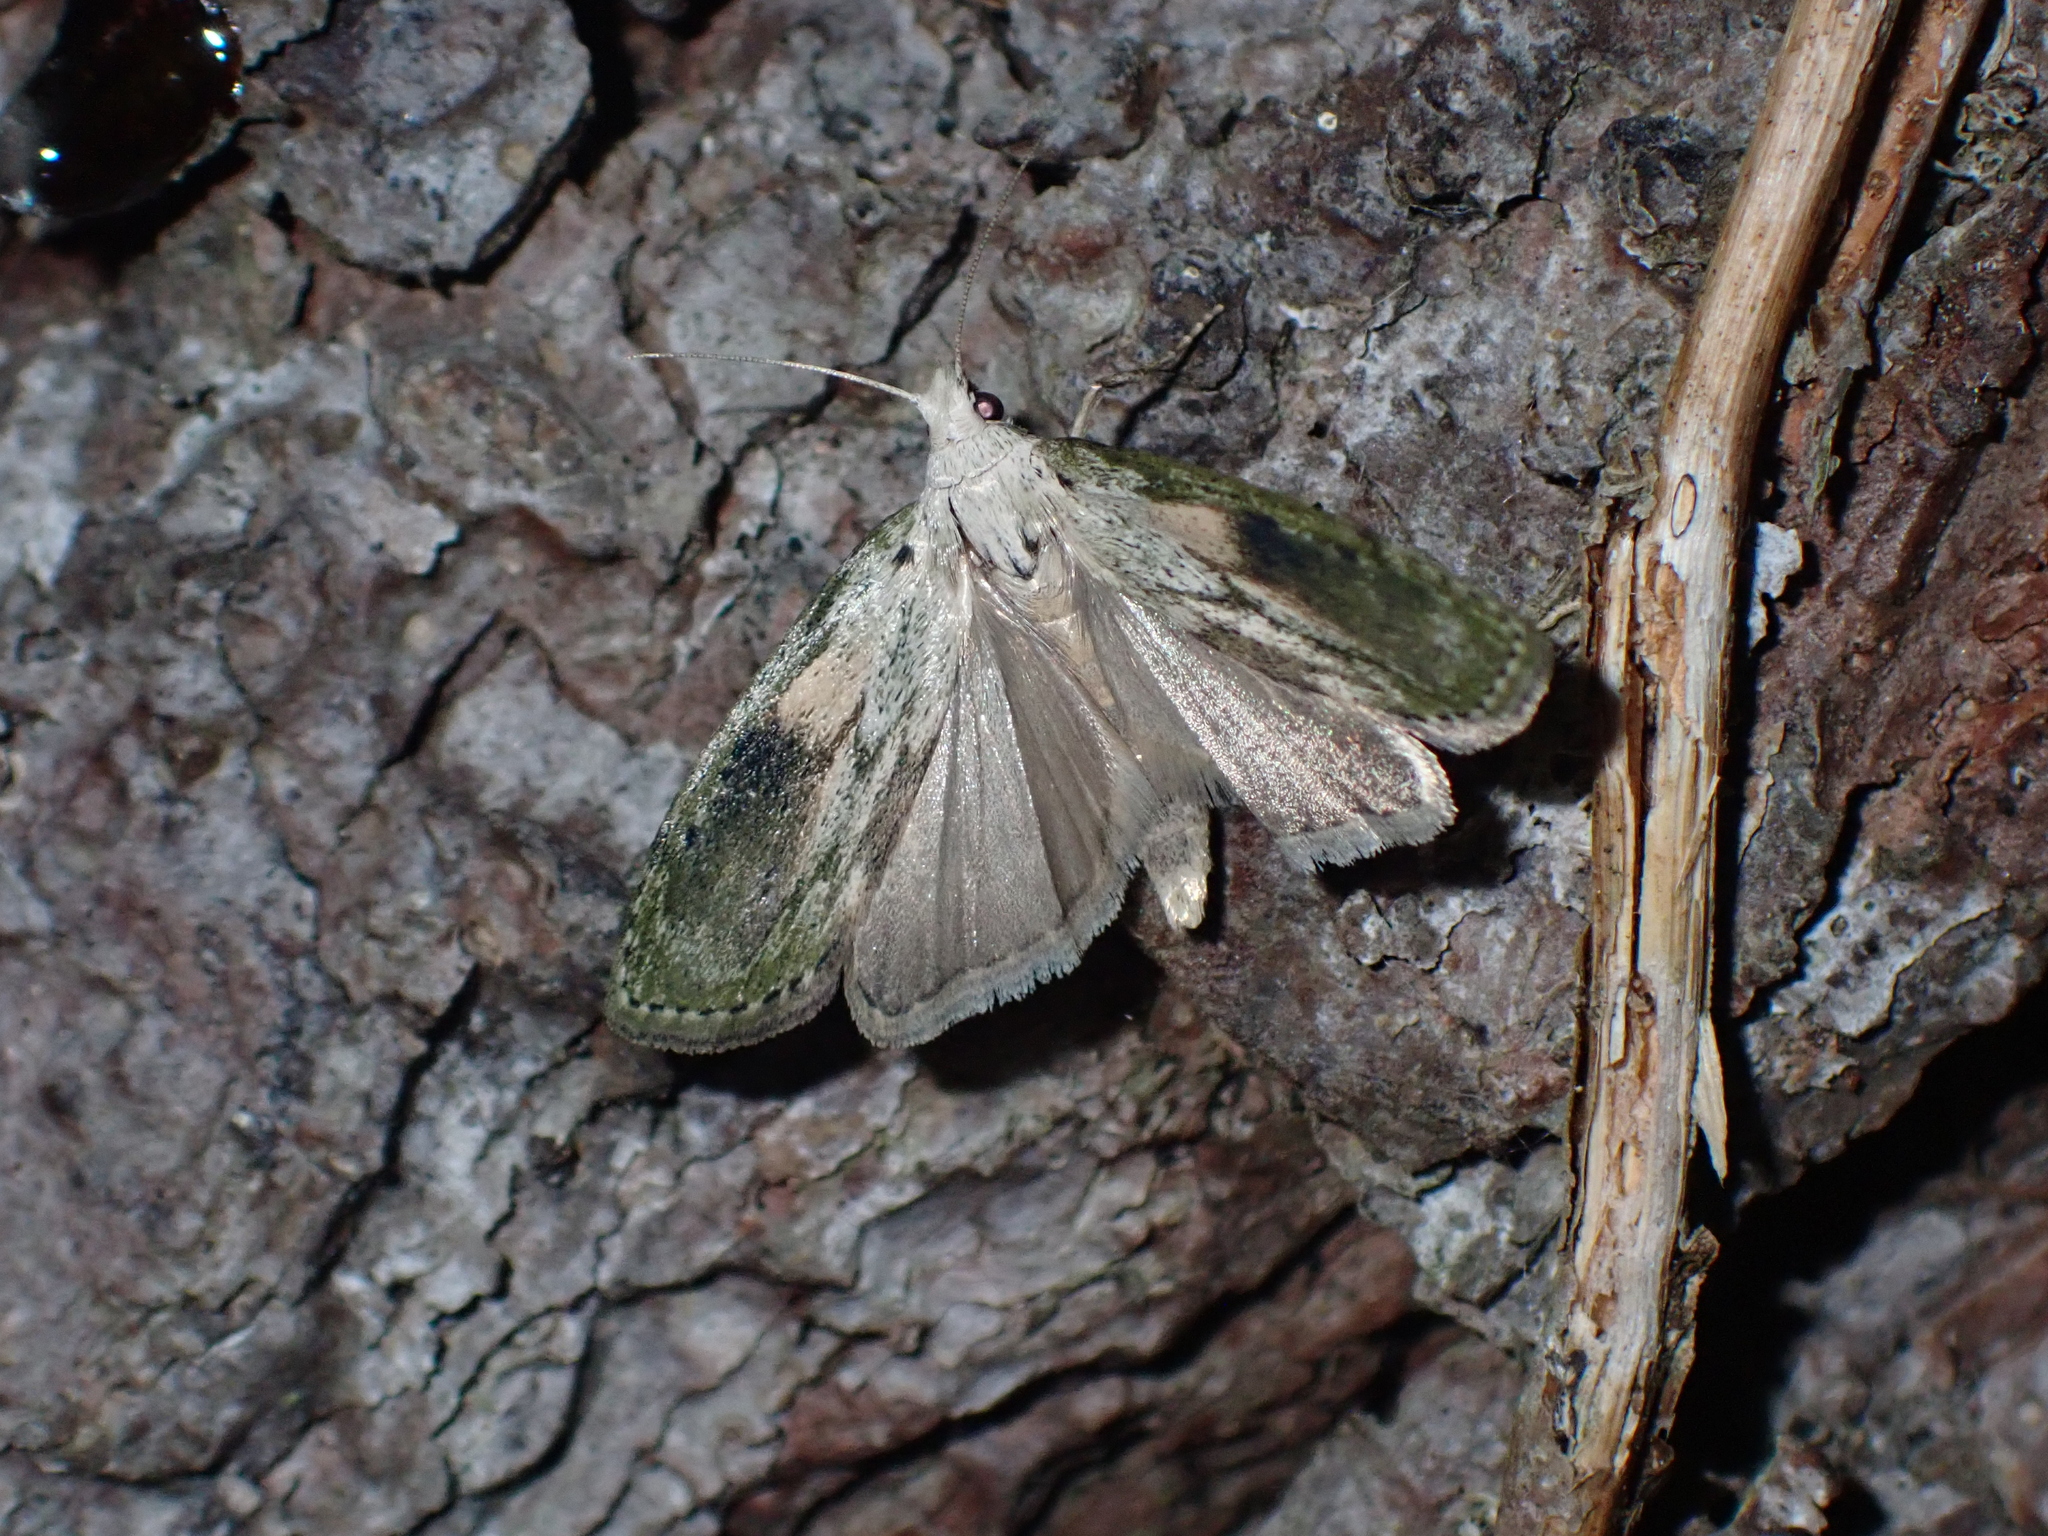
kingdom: Animalia
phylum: Arthropoda
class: Insecta
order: Lepidoptera
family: Pyralidae
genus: Aphomia
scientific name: Aphomia sociella
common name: Bee moth
